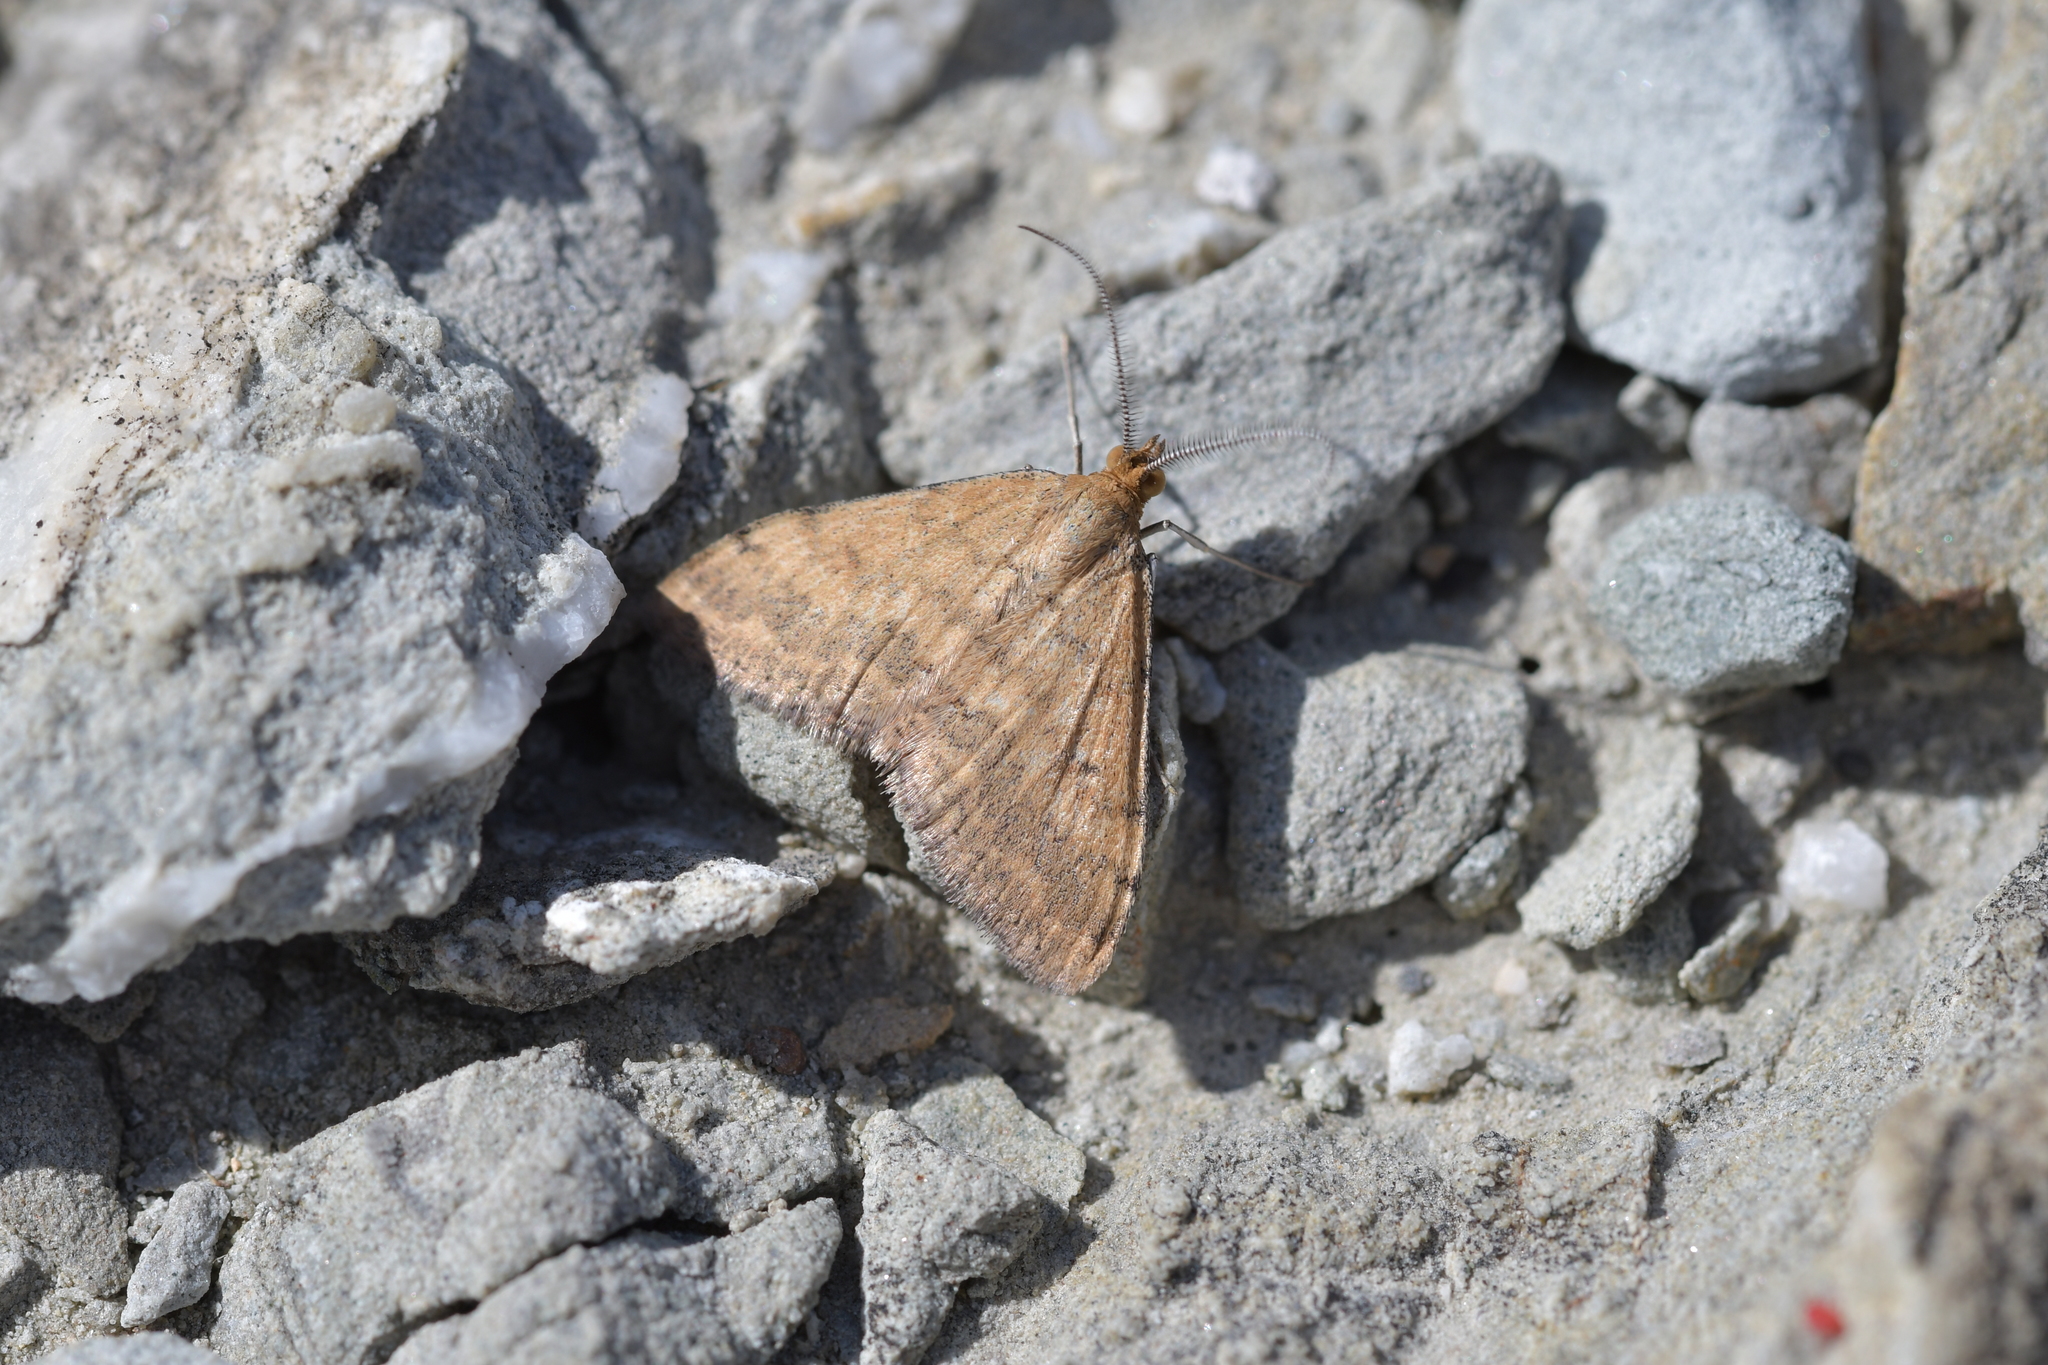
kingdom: Animalia
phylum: Arthropoda
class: Insecta
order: Lepidoptera
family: Geometridae
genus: Scopula
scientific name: Scopula rubraria
